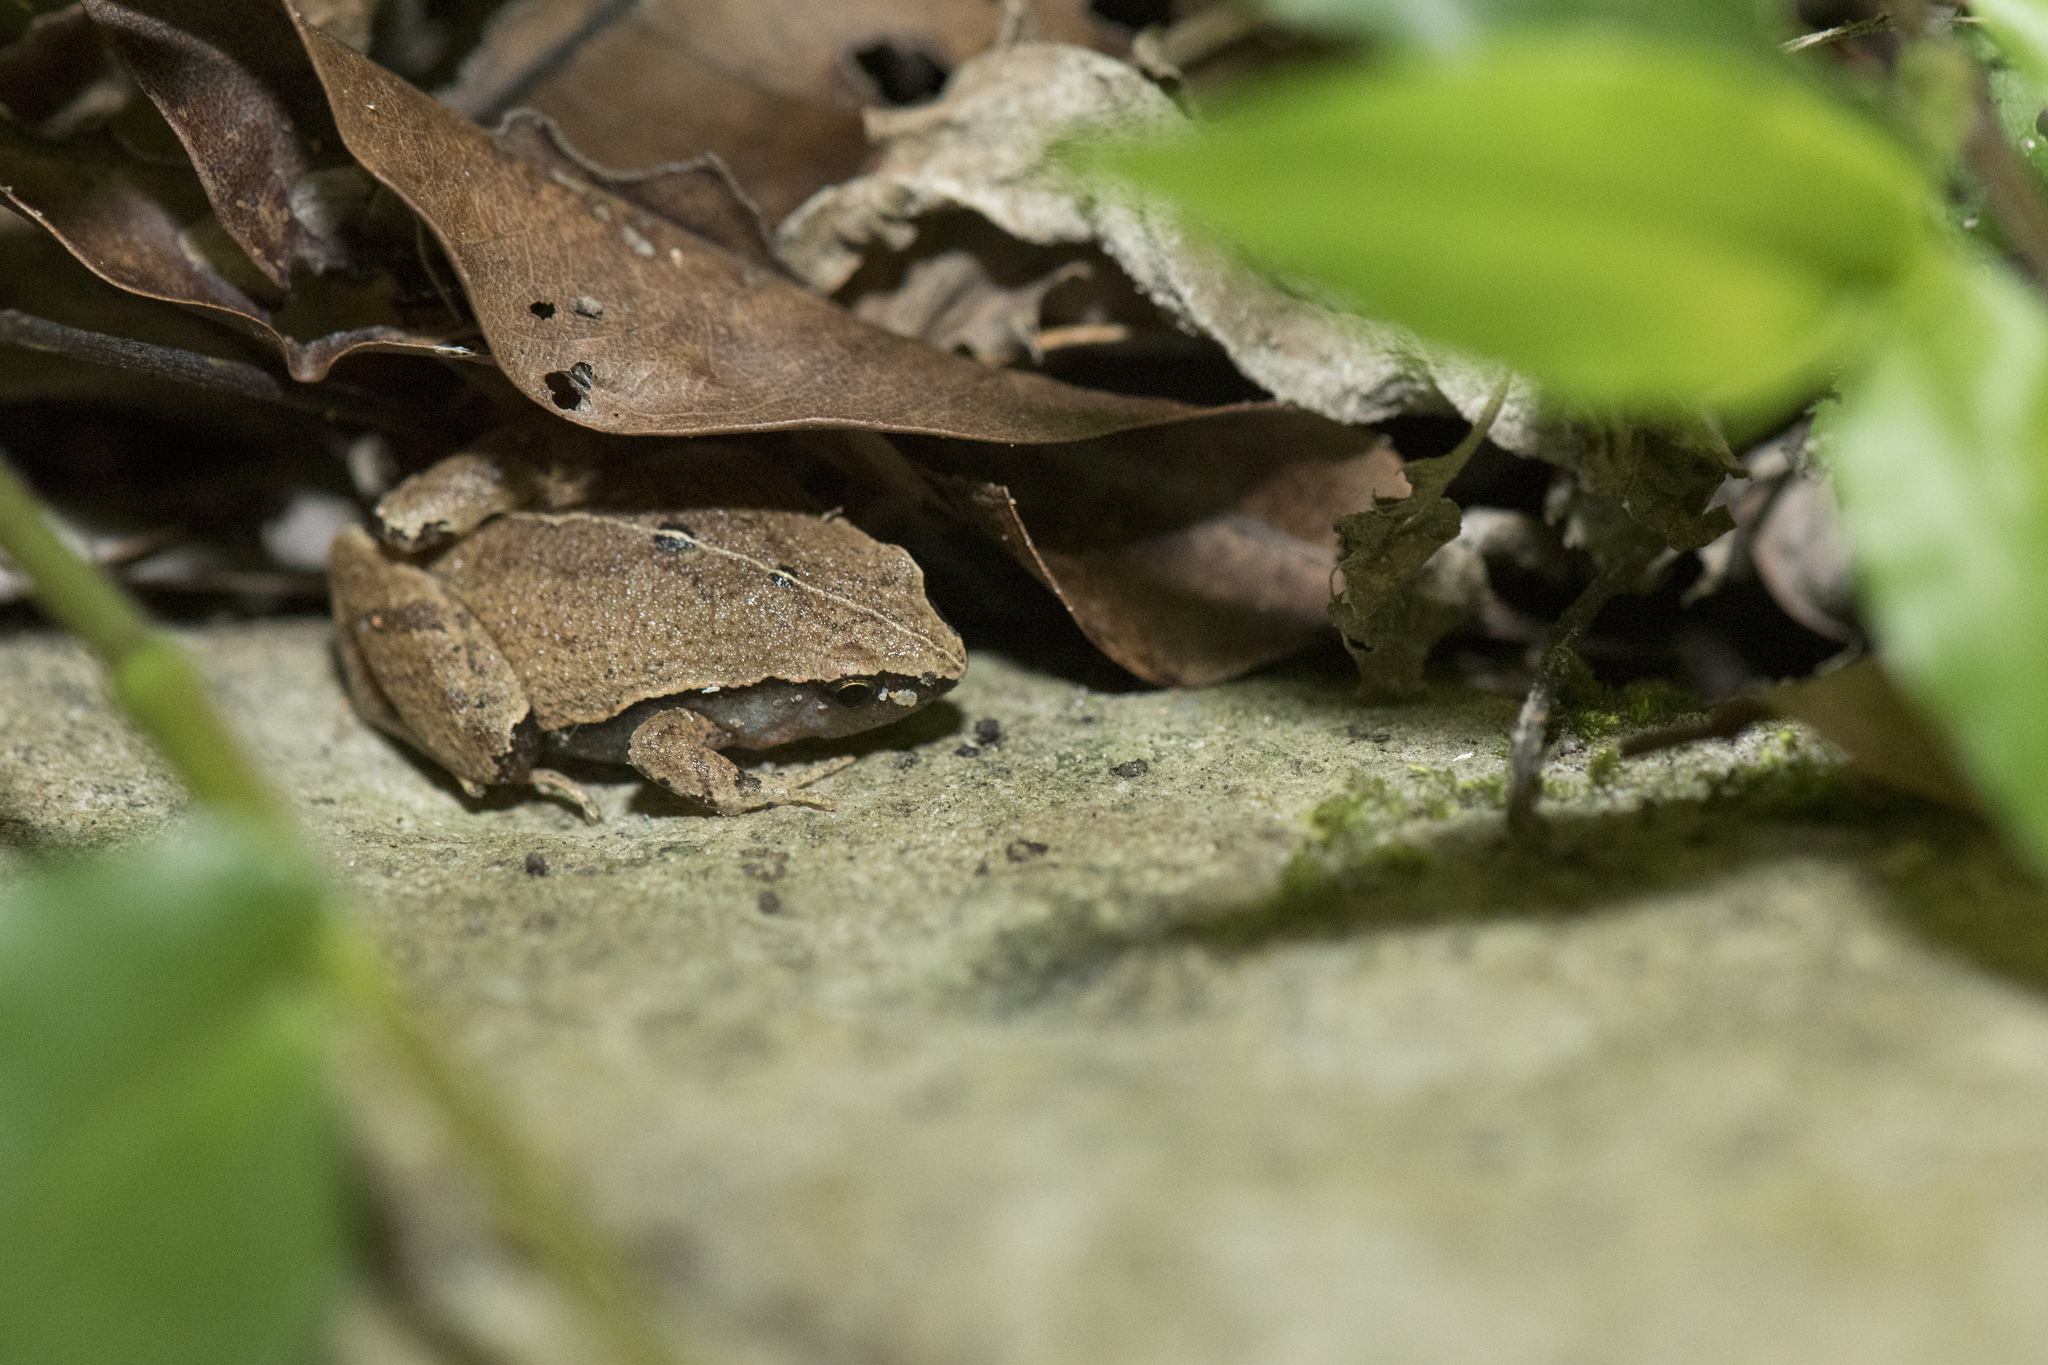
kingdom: Animalia
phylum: Chordata
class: Amphibia
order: Anura
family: Microhylidae
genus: Microhyla
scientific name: Microhyla heymonsi
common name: Taiwan rice frog,dark sided chorus frog
